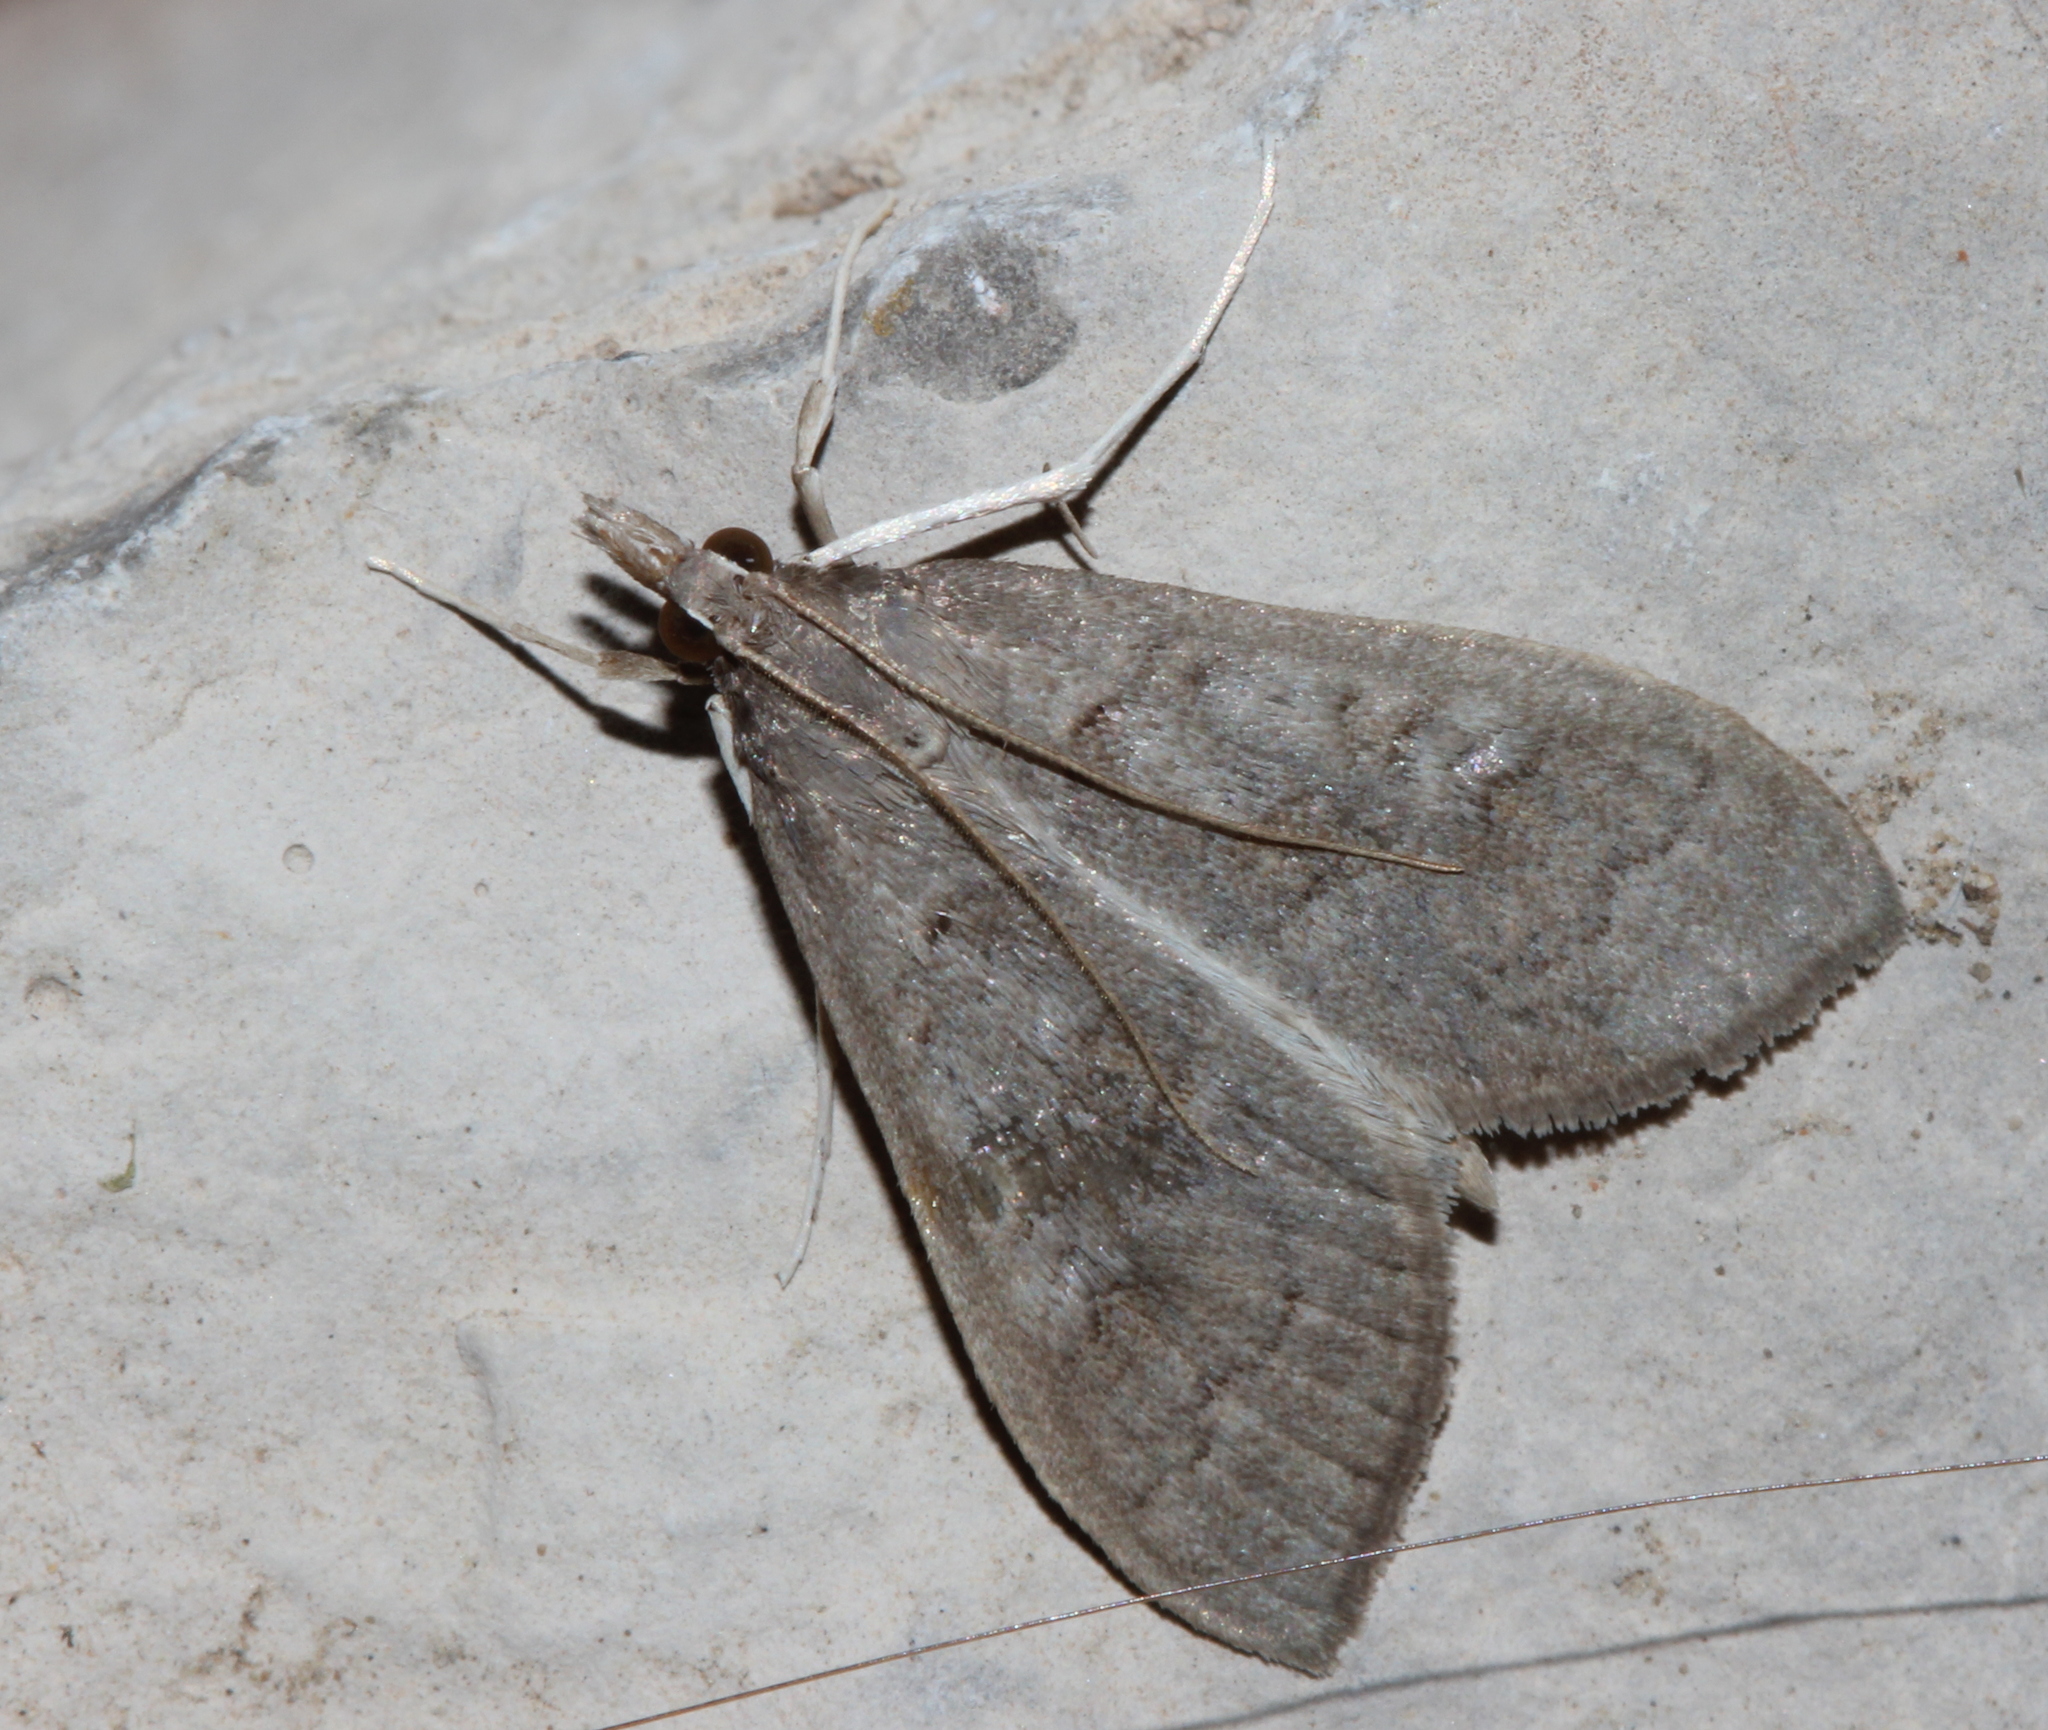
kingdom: Animalia
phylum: Arthropoda
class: Insecta
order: Lepidoptera
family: Crambidae
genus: Mecyna
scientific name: Mecyna asinalis
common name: Coastal pearl
